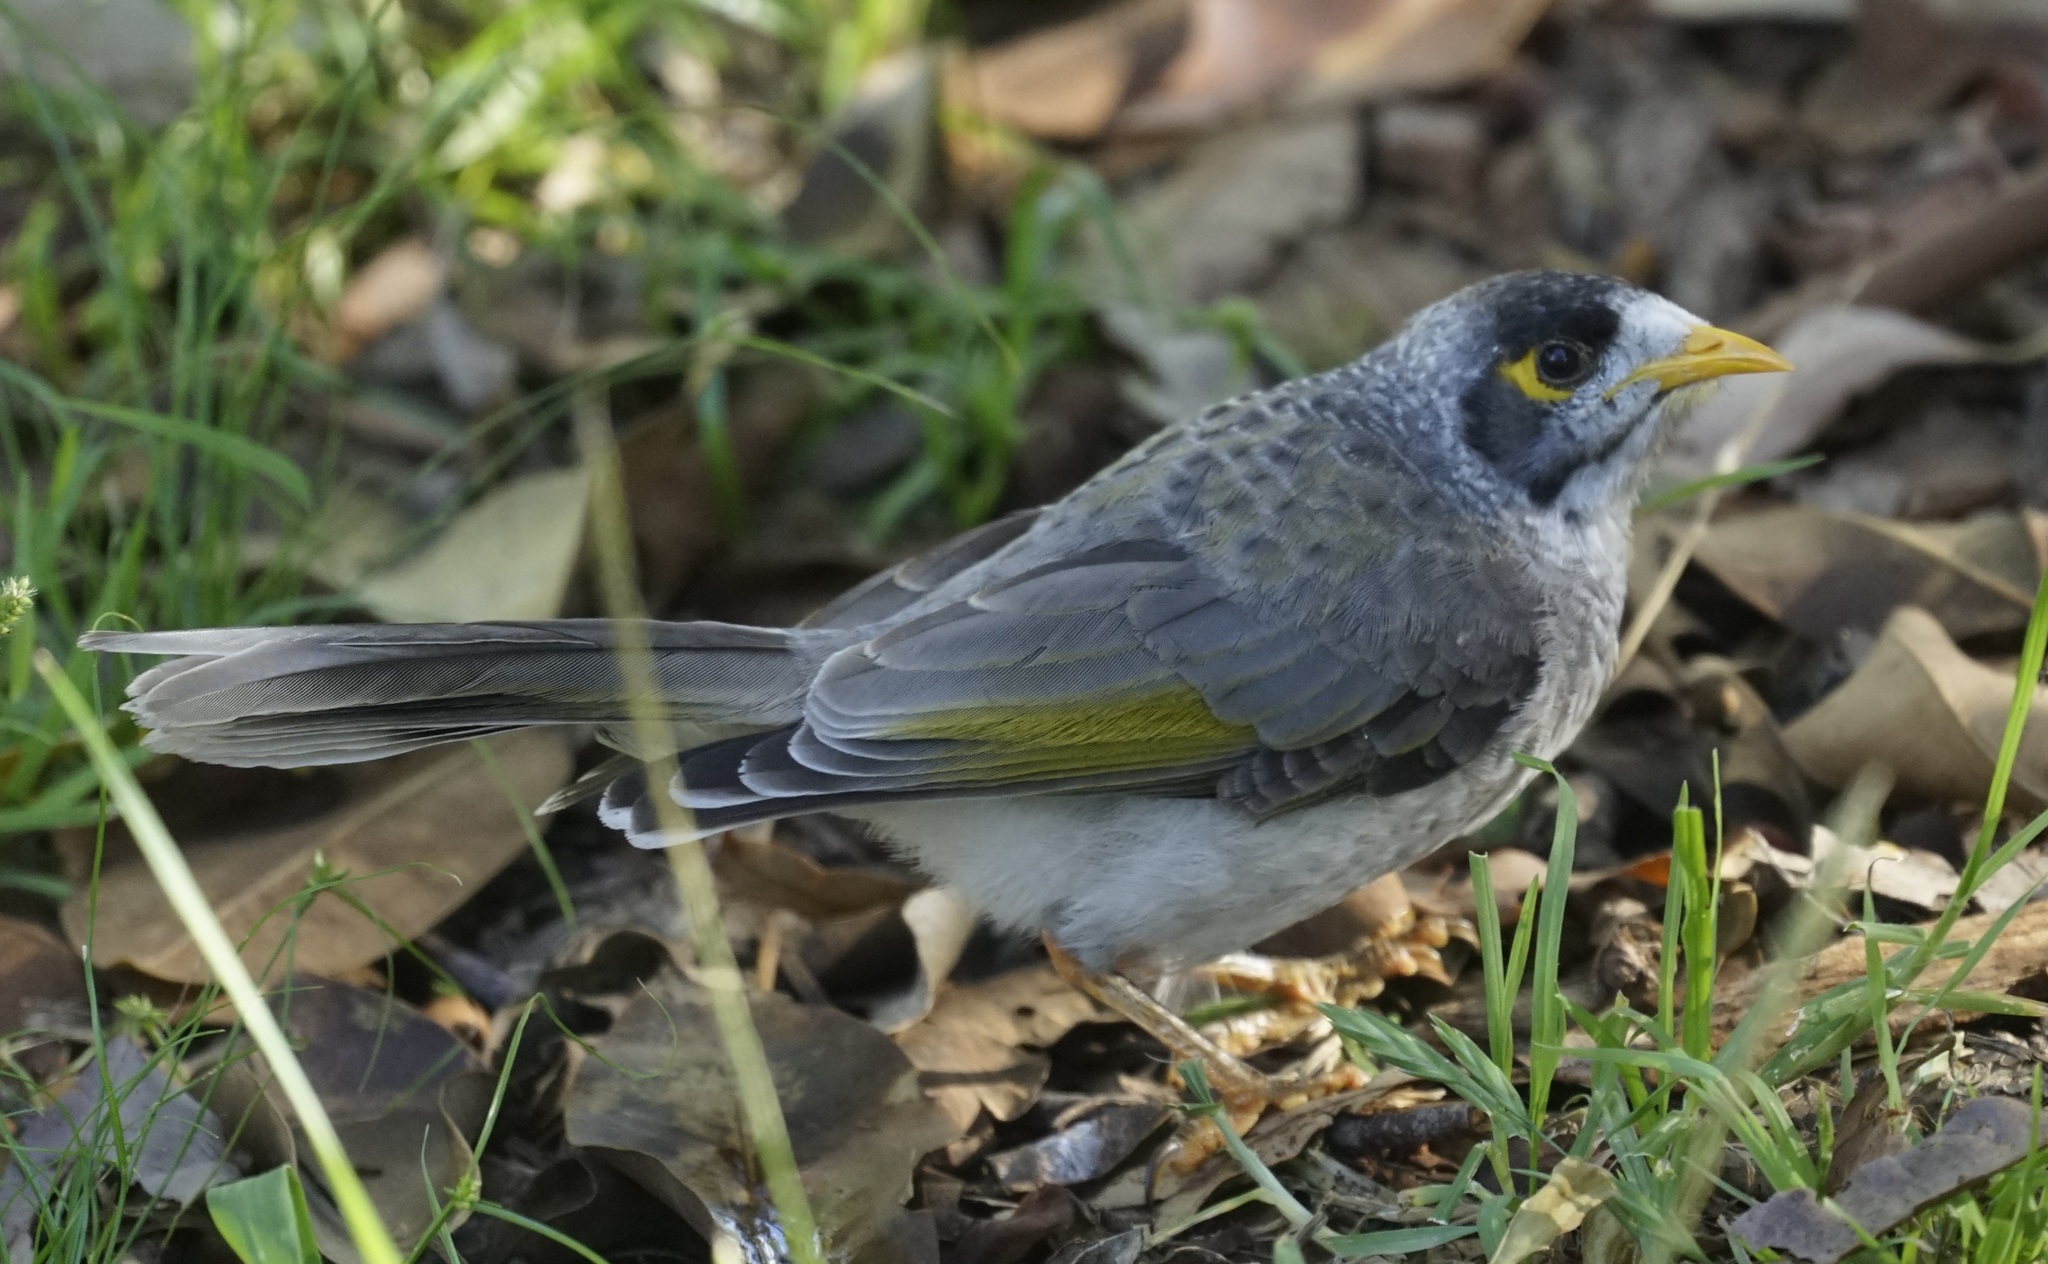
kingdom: Animalia
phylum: Chordata
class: Aves
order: Passeriformes
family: Meliphagidae
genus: Manorina
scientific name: Manorina melanocephala
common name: Noisy miner
